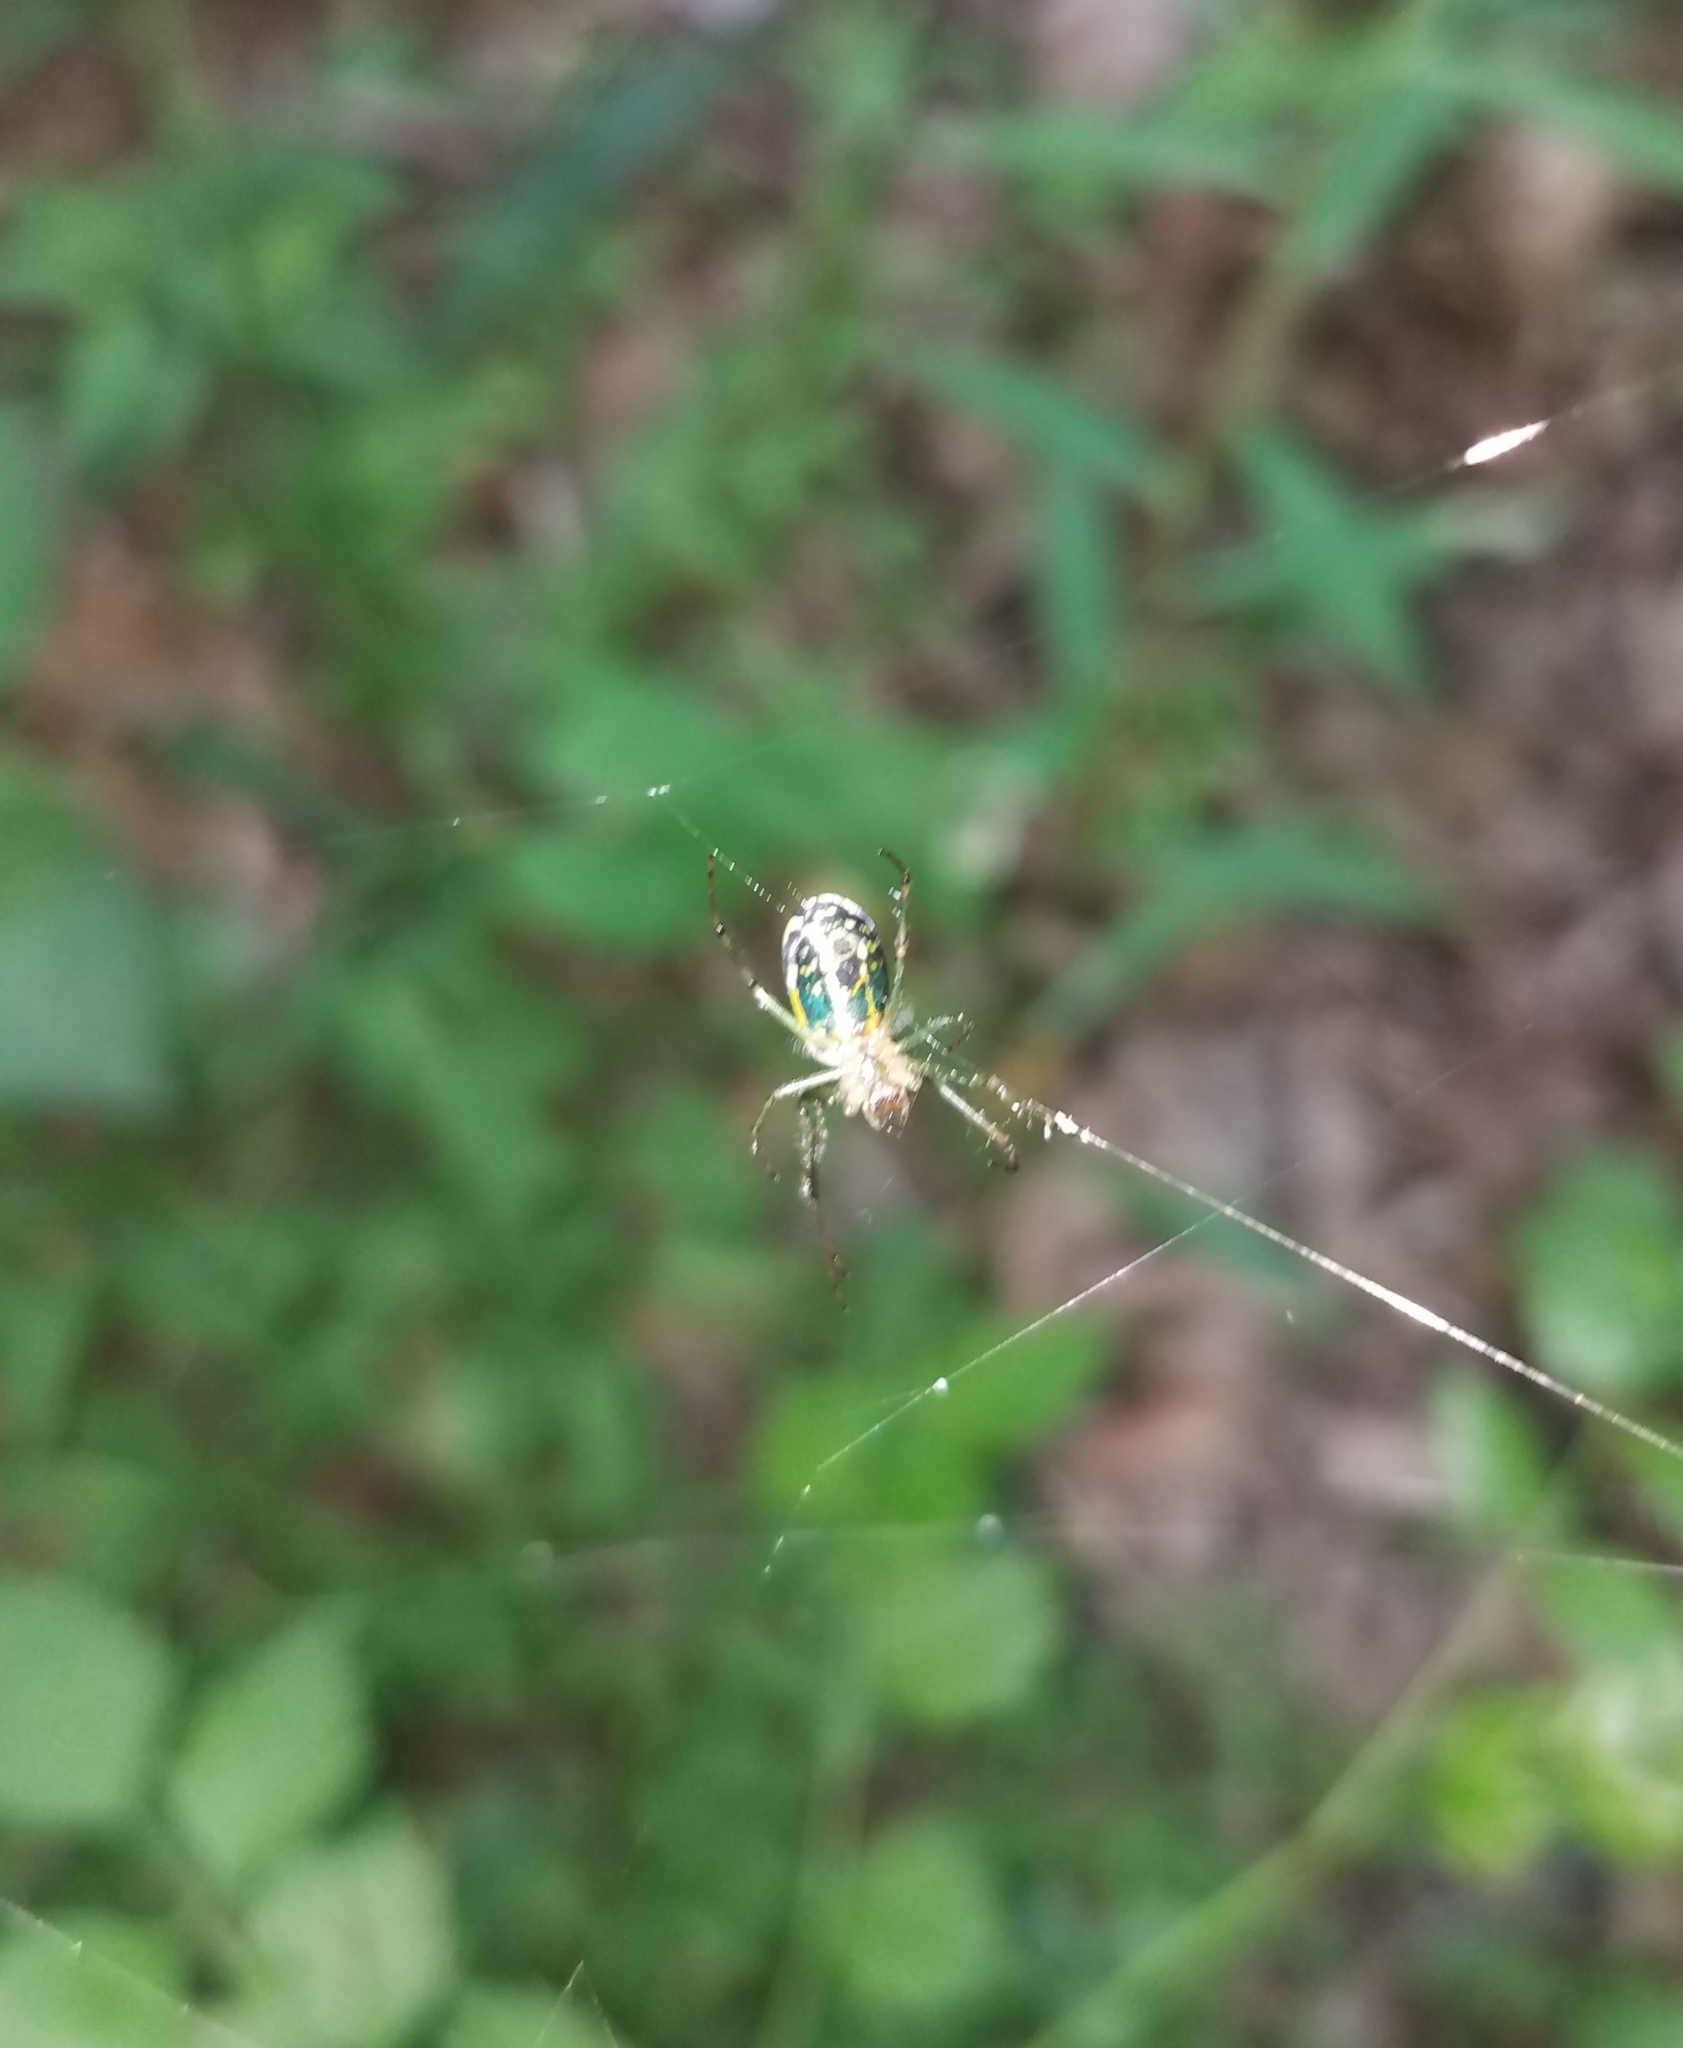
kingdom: Animalia
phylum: Arthropoda
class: Arachnida
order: Araneae
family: Tetragnathidae
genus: Leucauge
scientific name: Leucauge venusta
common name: Longjawed orb weavers
